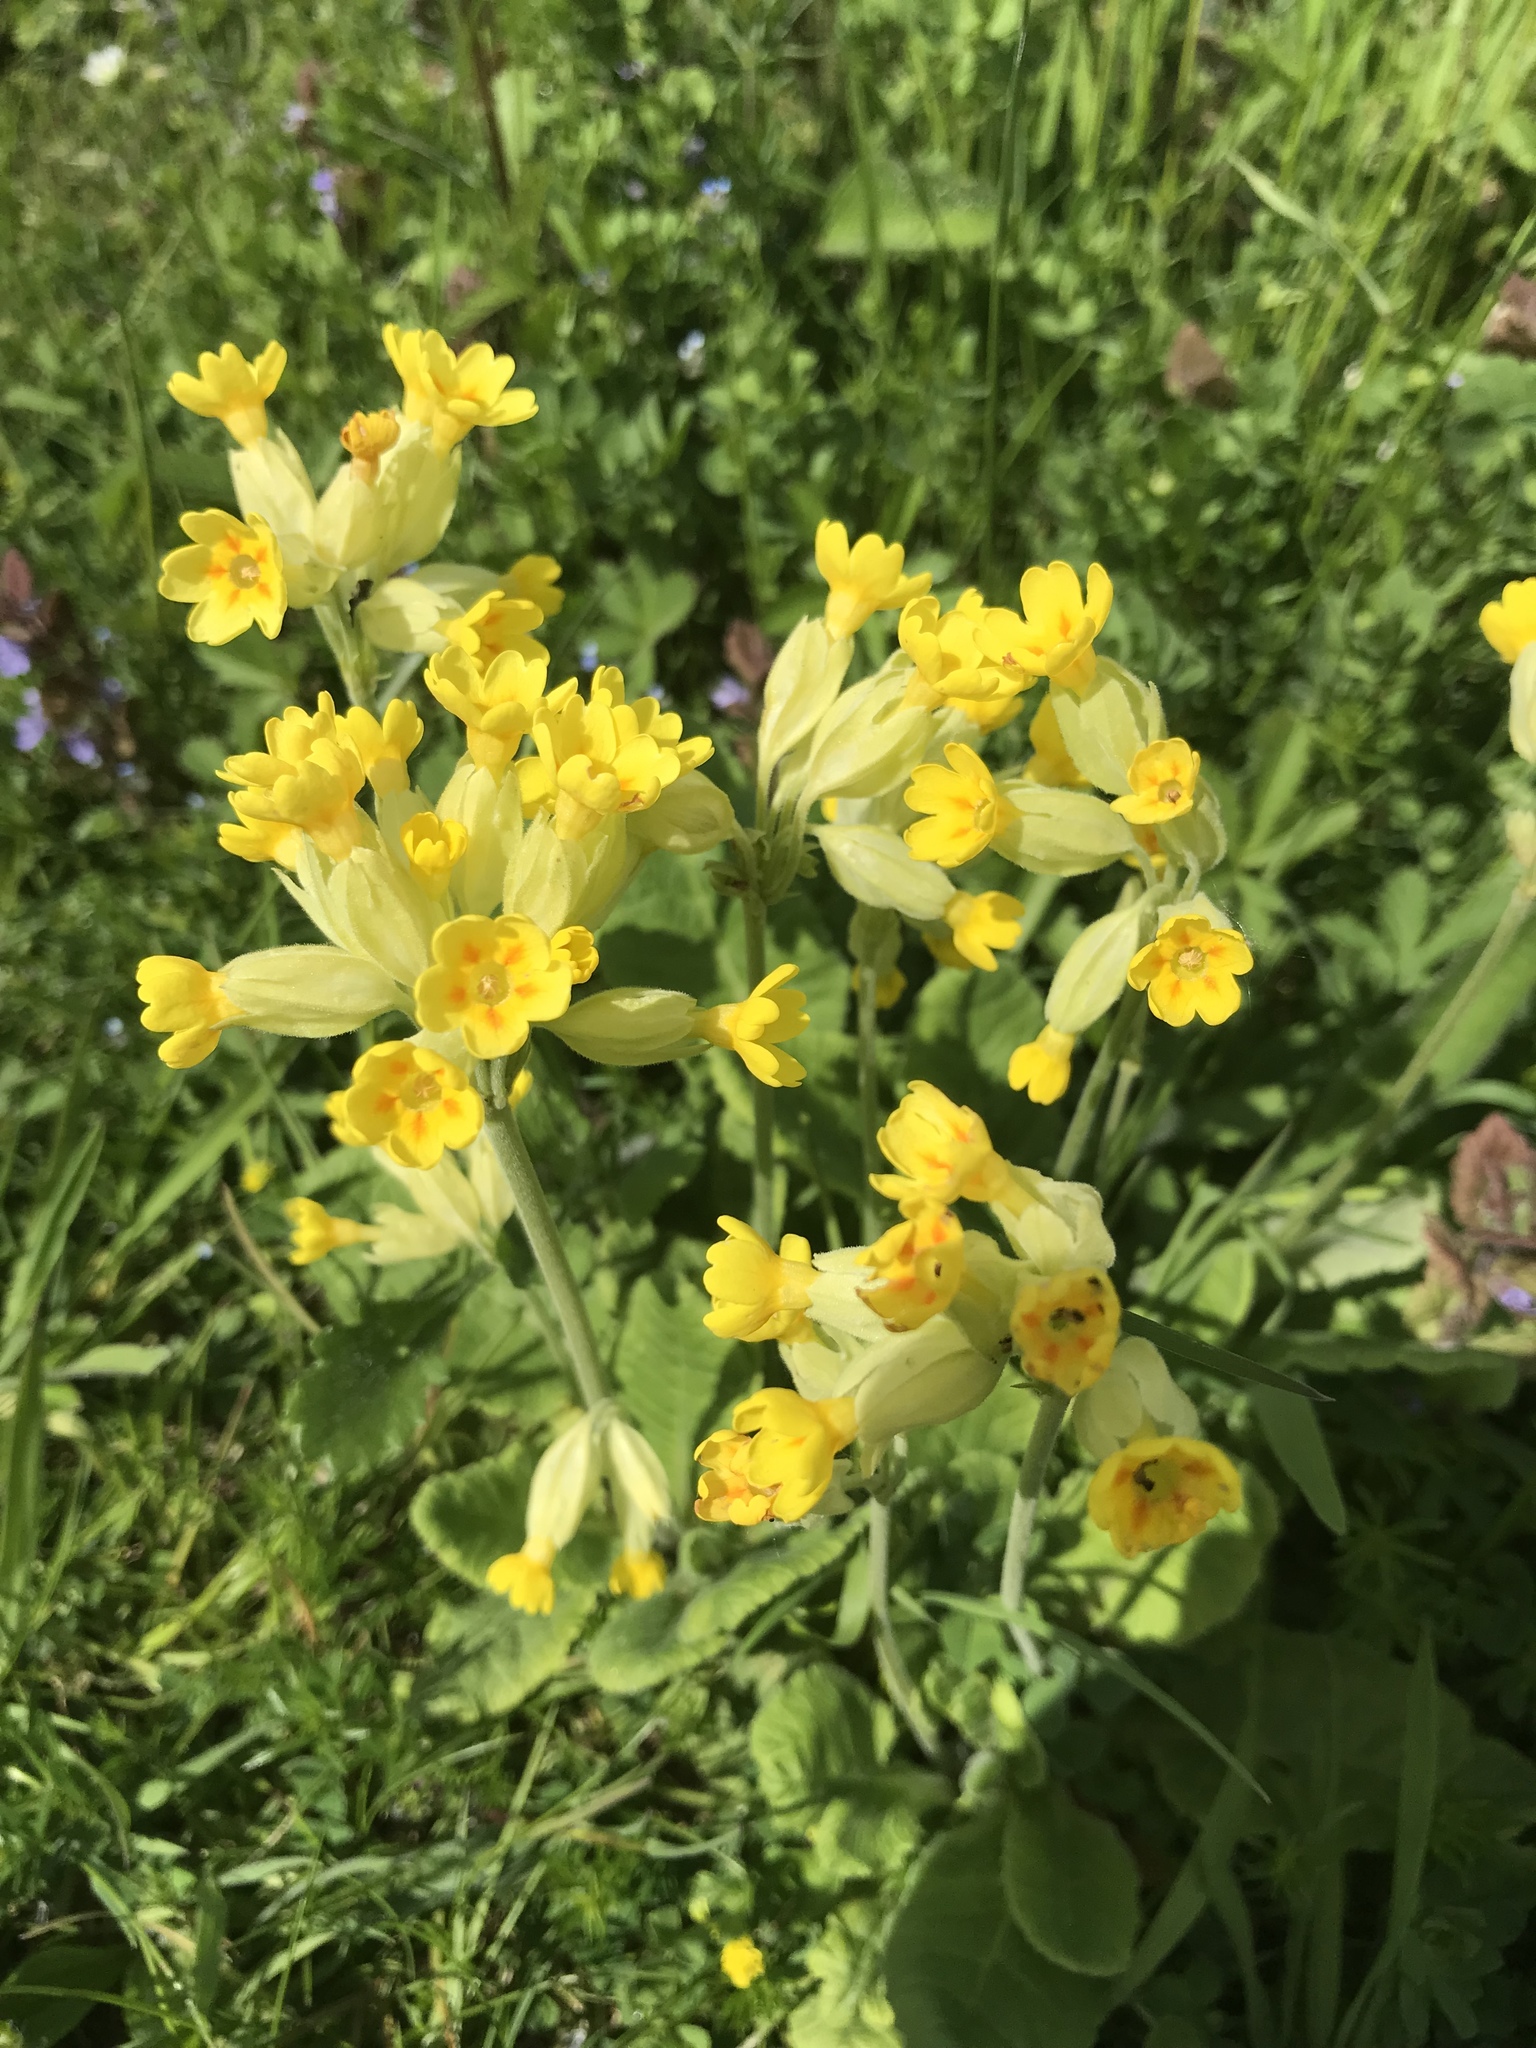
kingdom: Plantae
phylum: Tracheophyta
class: Magnoliopsida
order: Ericales
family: Primulaceae
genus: Primula
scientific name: Primula veris
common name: Cowslip
